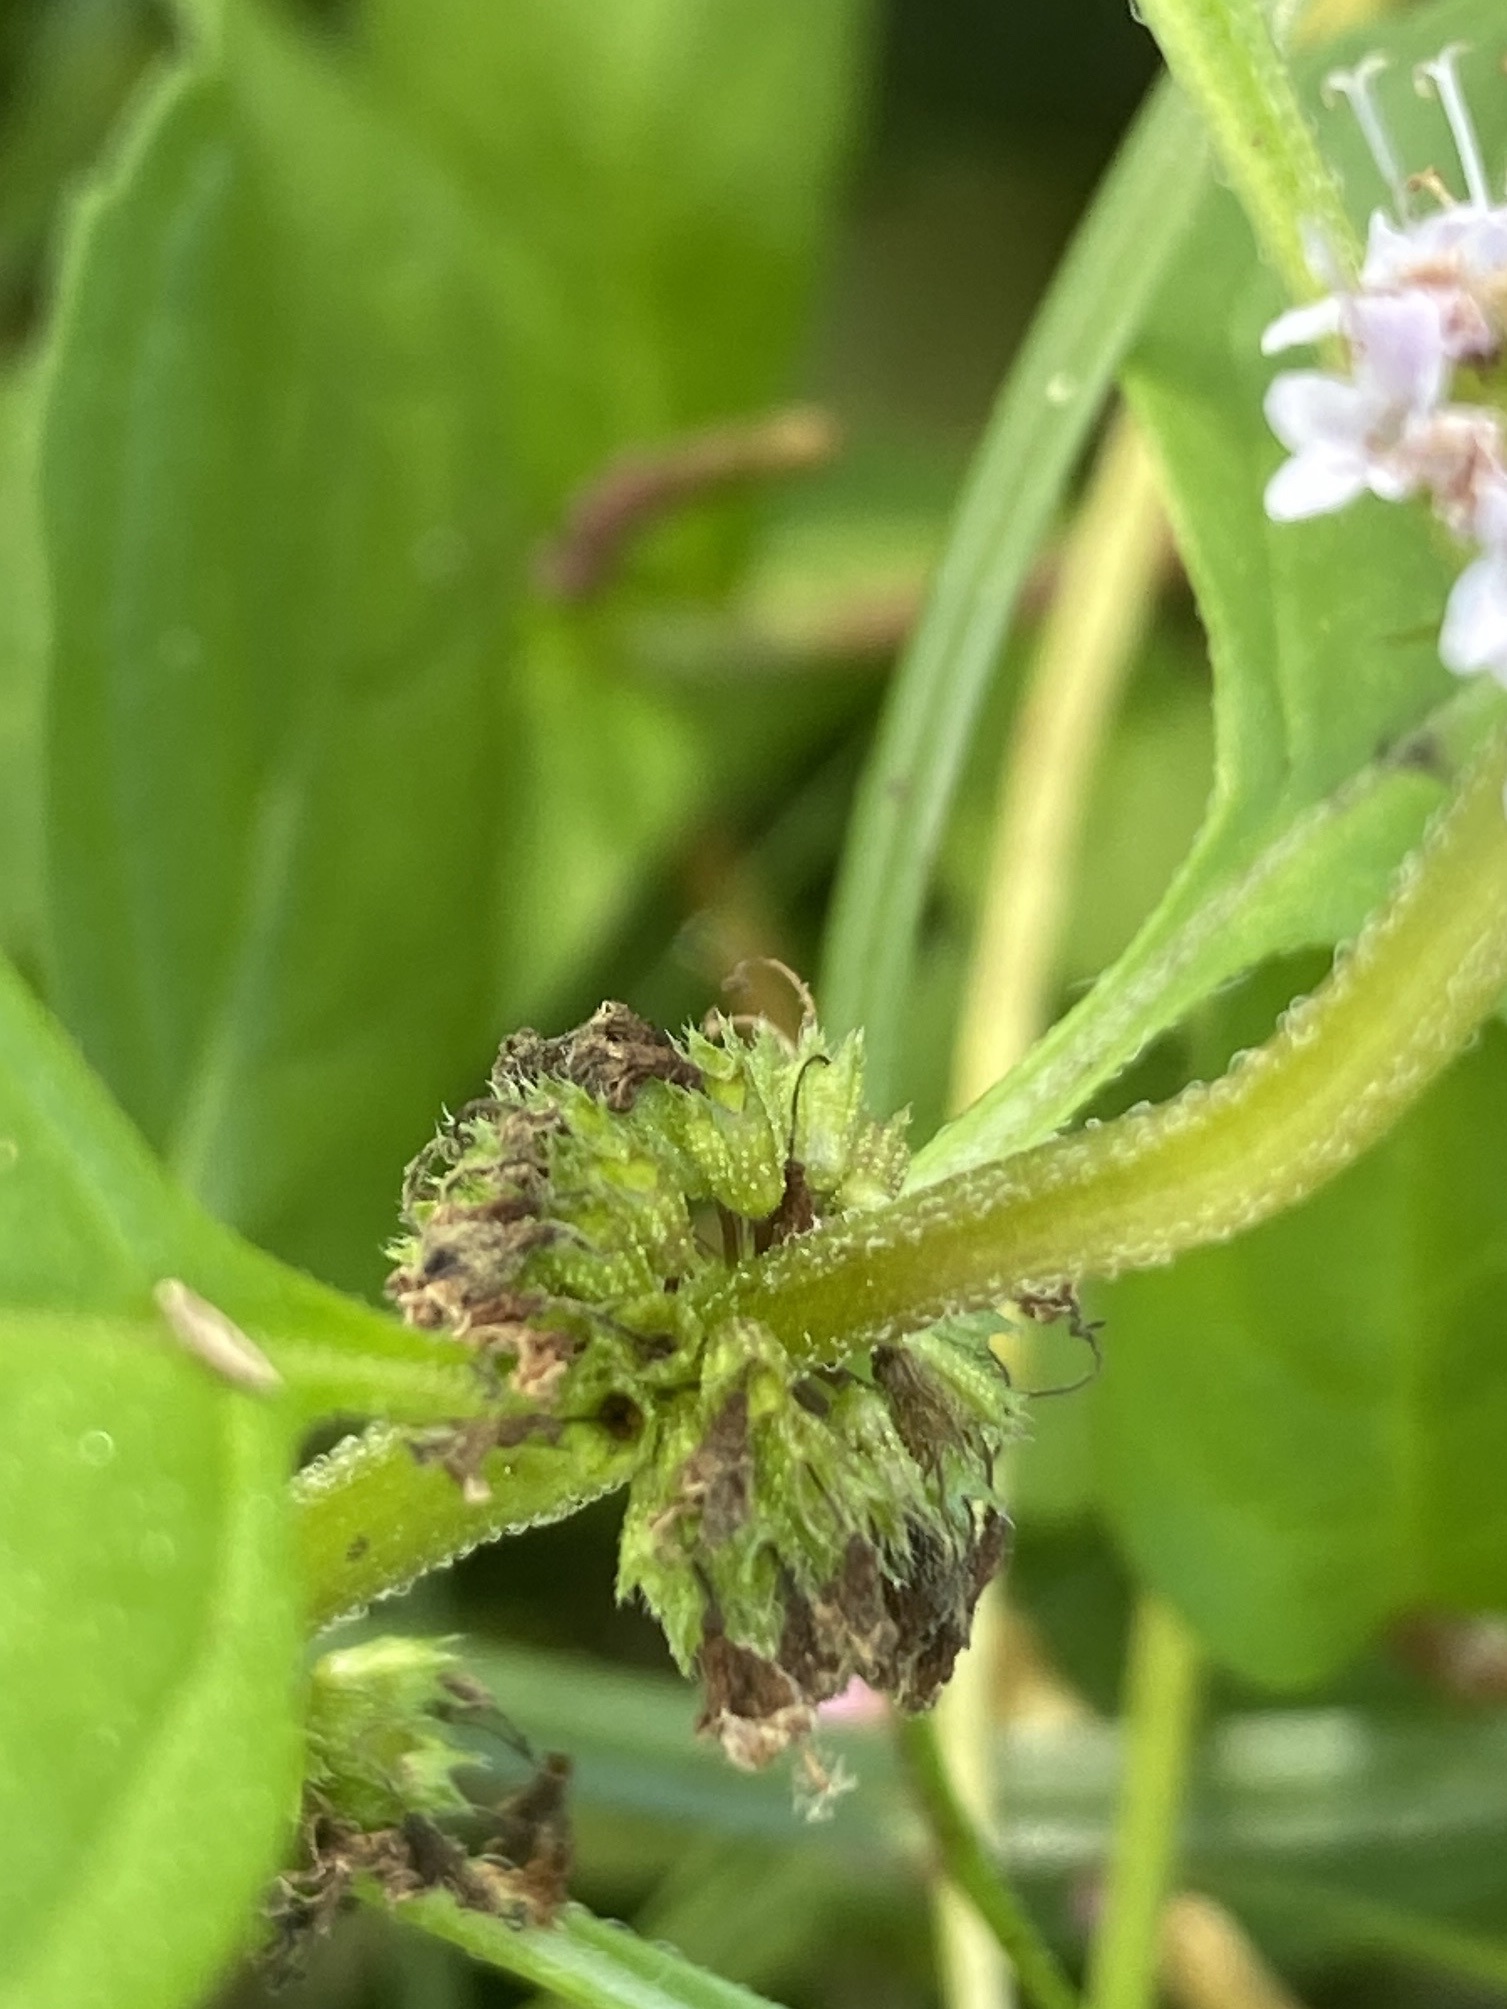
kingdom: Plantae
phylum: Tracheophyta
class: Magnoliopsida
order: Lamiales
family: Lamiaceae
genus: Mentha
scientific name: Mentha arvensis
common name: Corn mint
